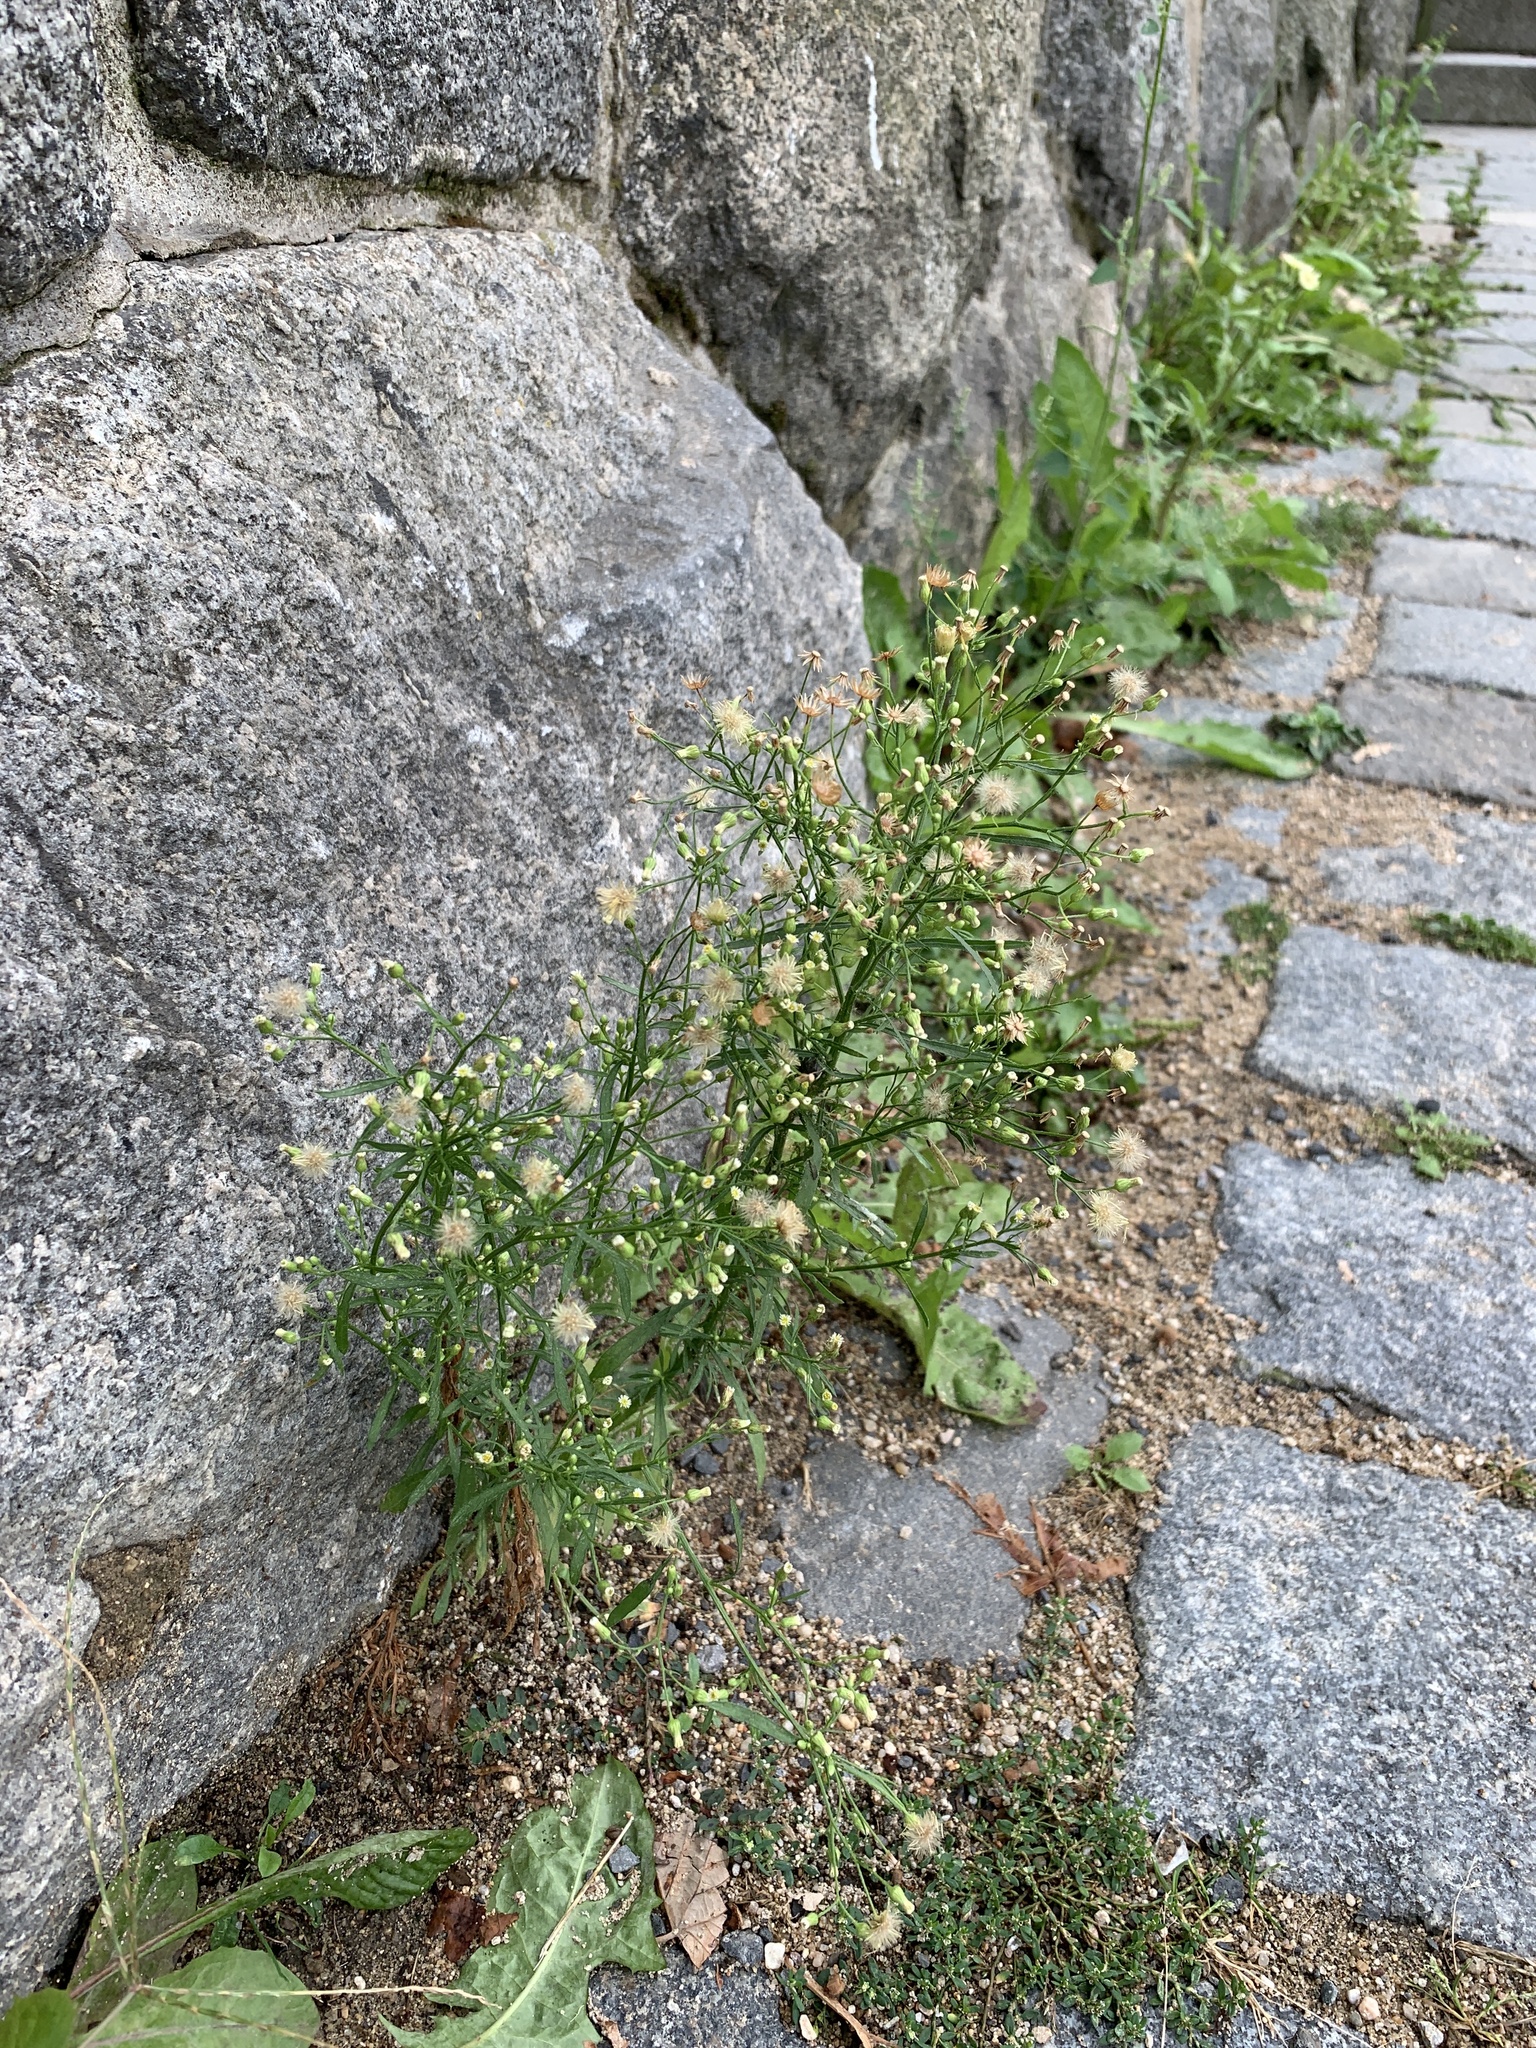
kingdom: Plantae
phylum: Tracheophyta
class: Magnoliopsida
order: Asterales
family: Asteraceae
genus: Erigeron
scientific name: Erigeron canadensis
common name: Canadian fleabane
